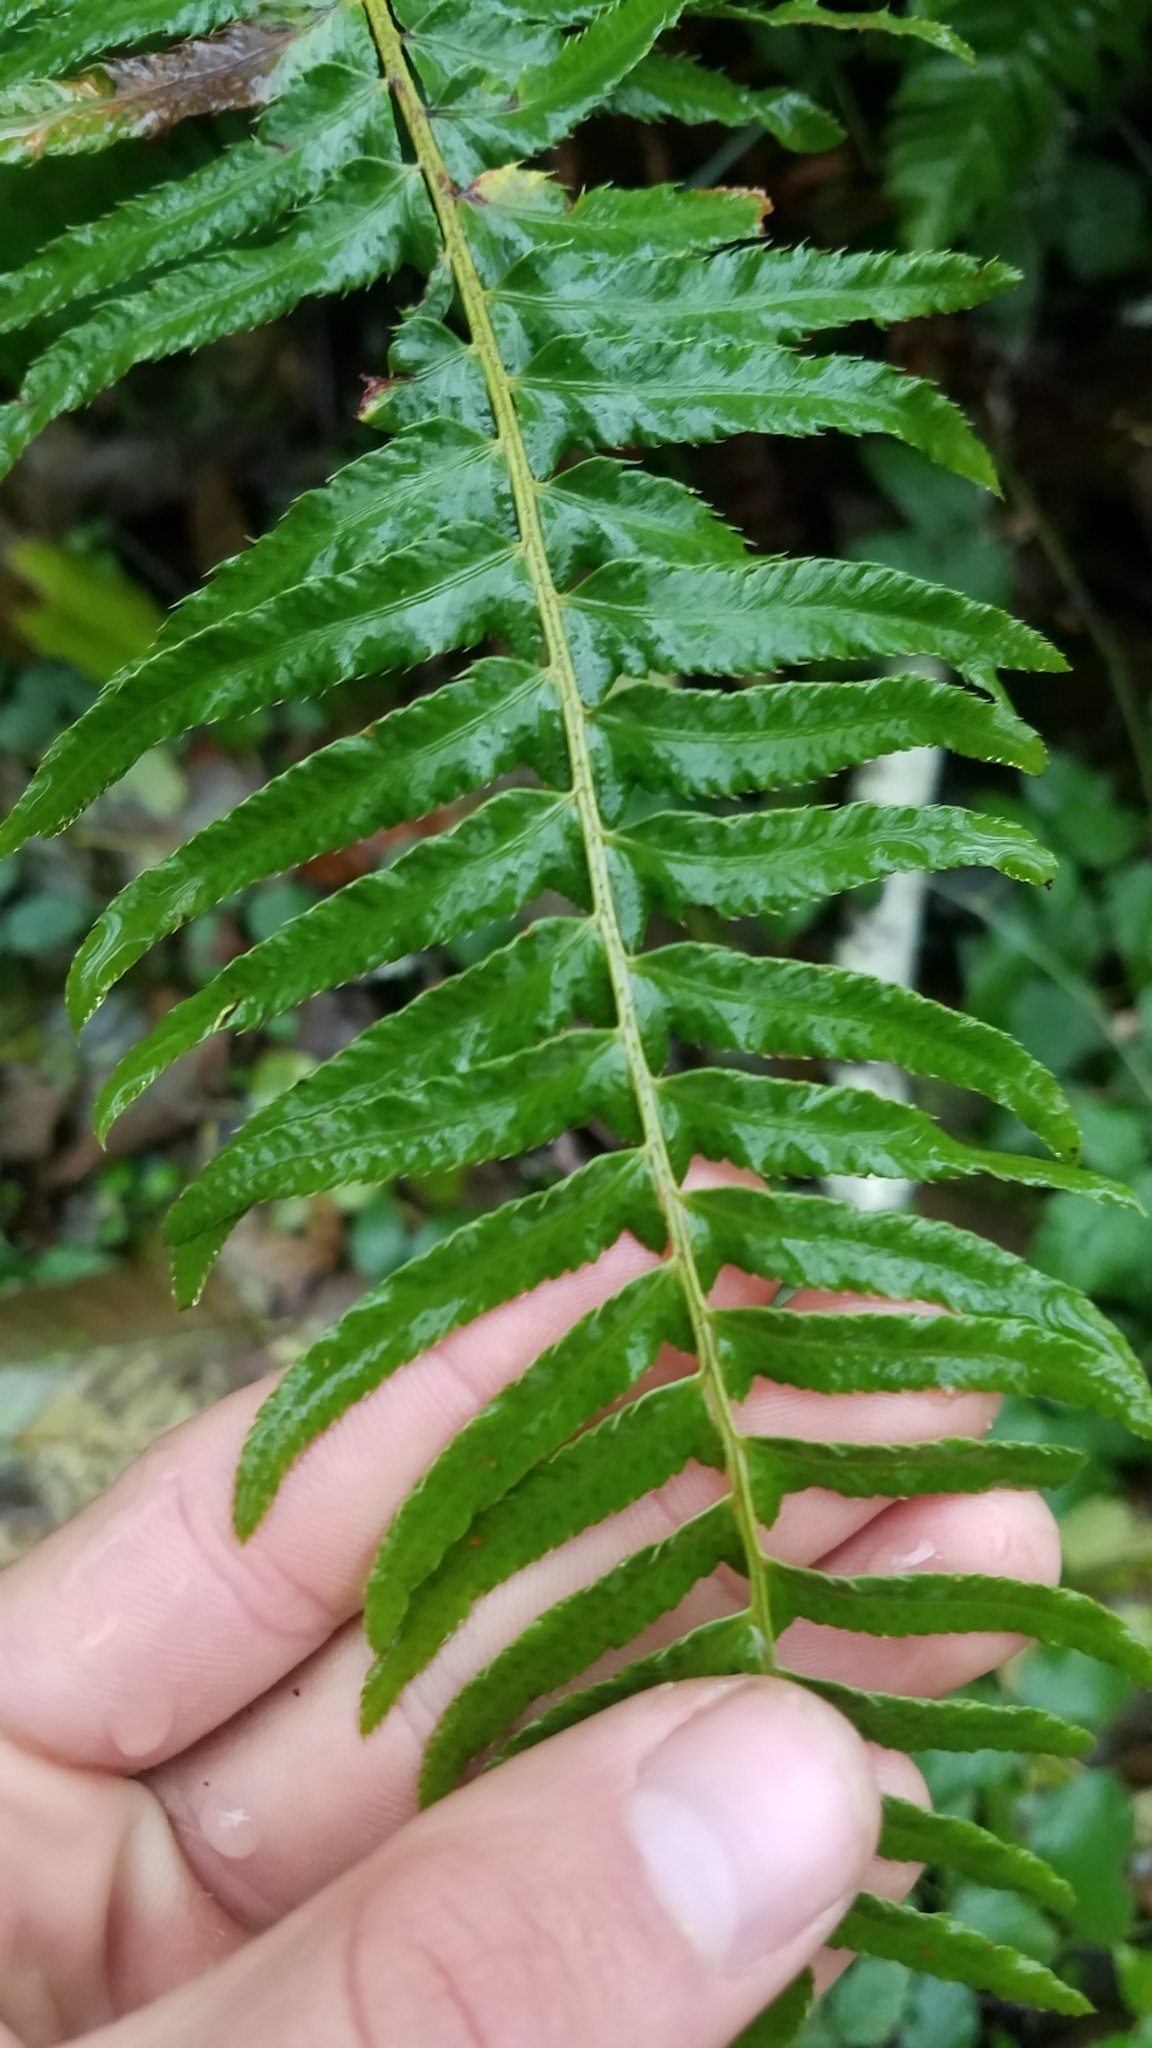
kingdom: Plantae
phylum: Tracheophyta
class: Polypodiopsida
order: Polypodiales
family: Dryopteridaceae
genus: Polystichum
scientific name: Polystichum munitum
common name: Western sword-fern
